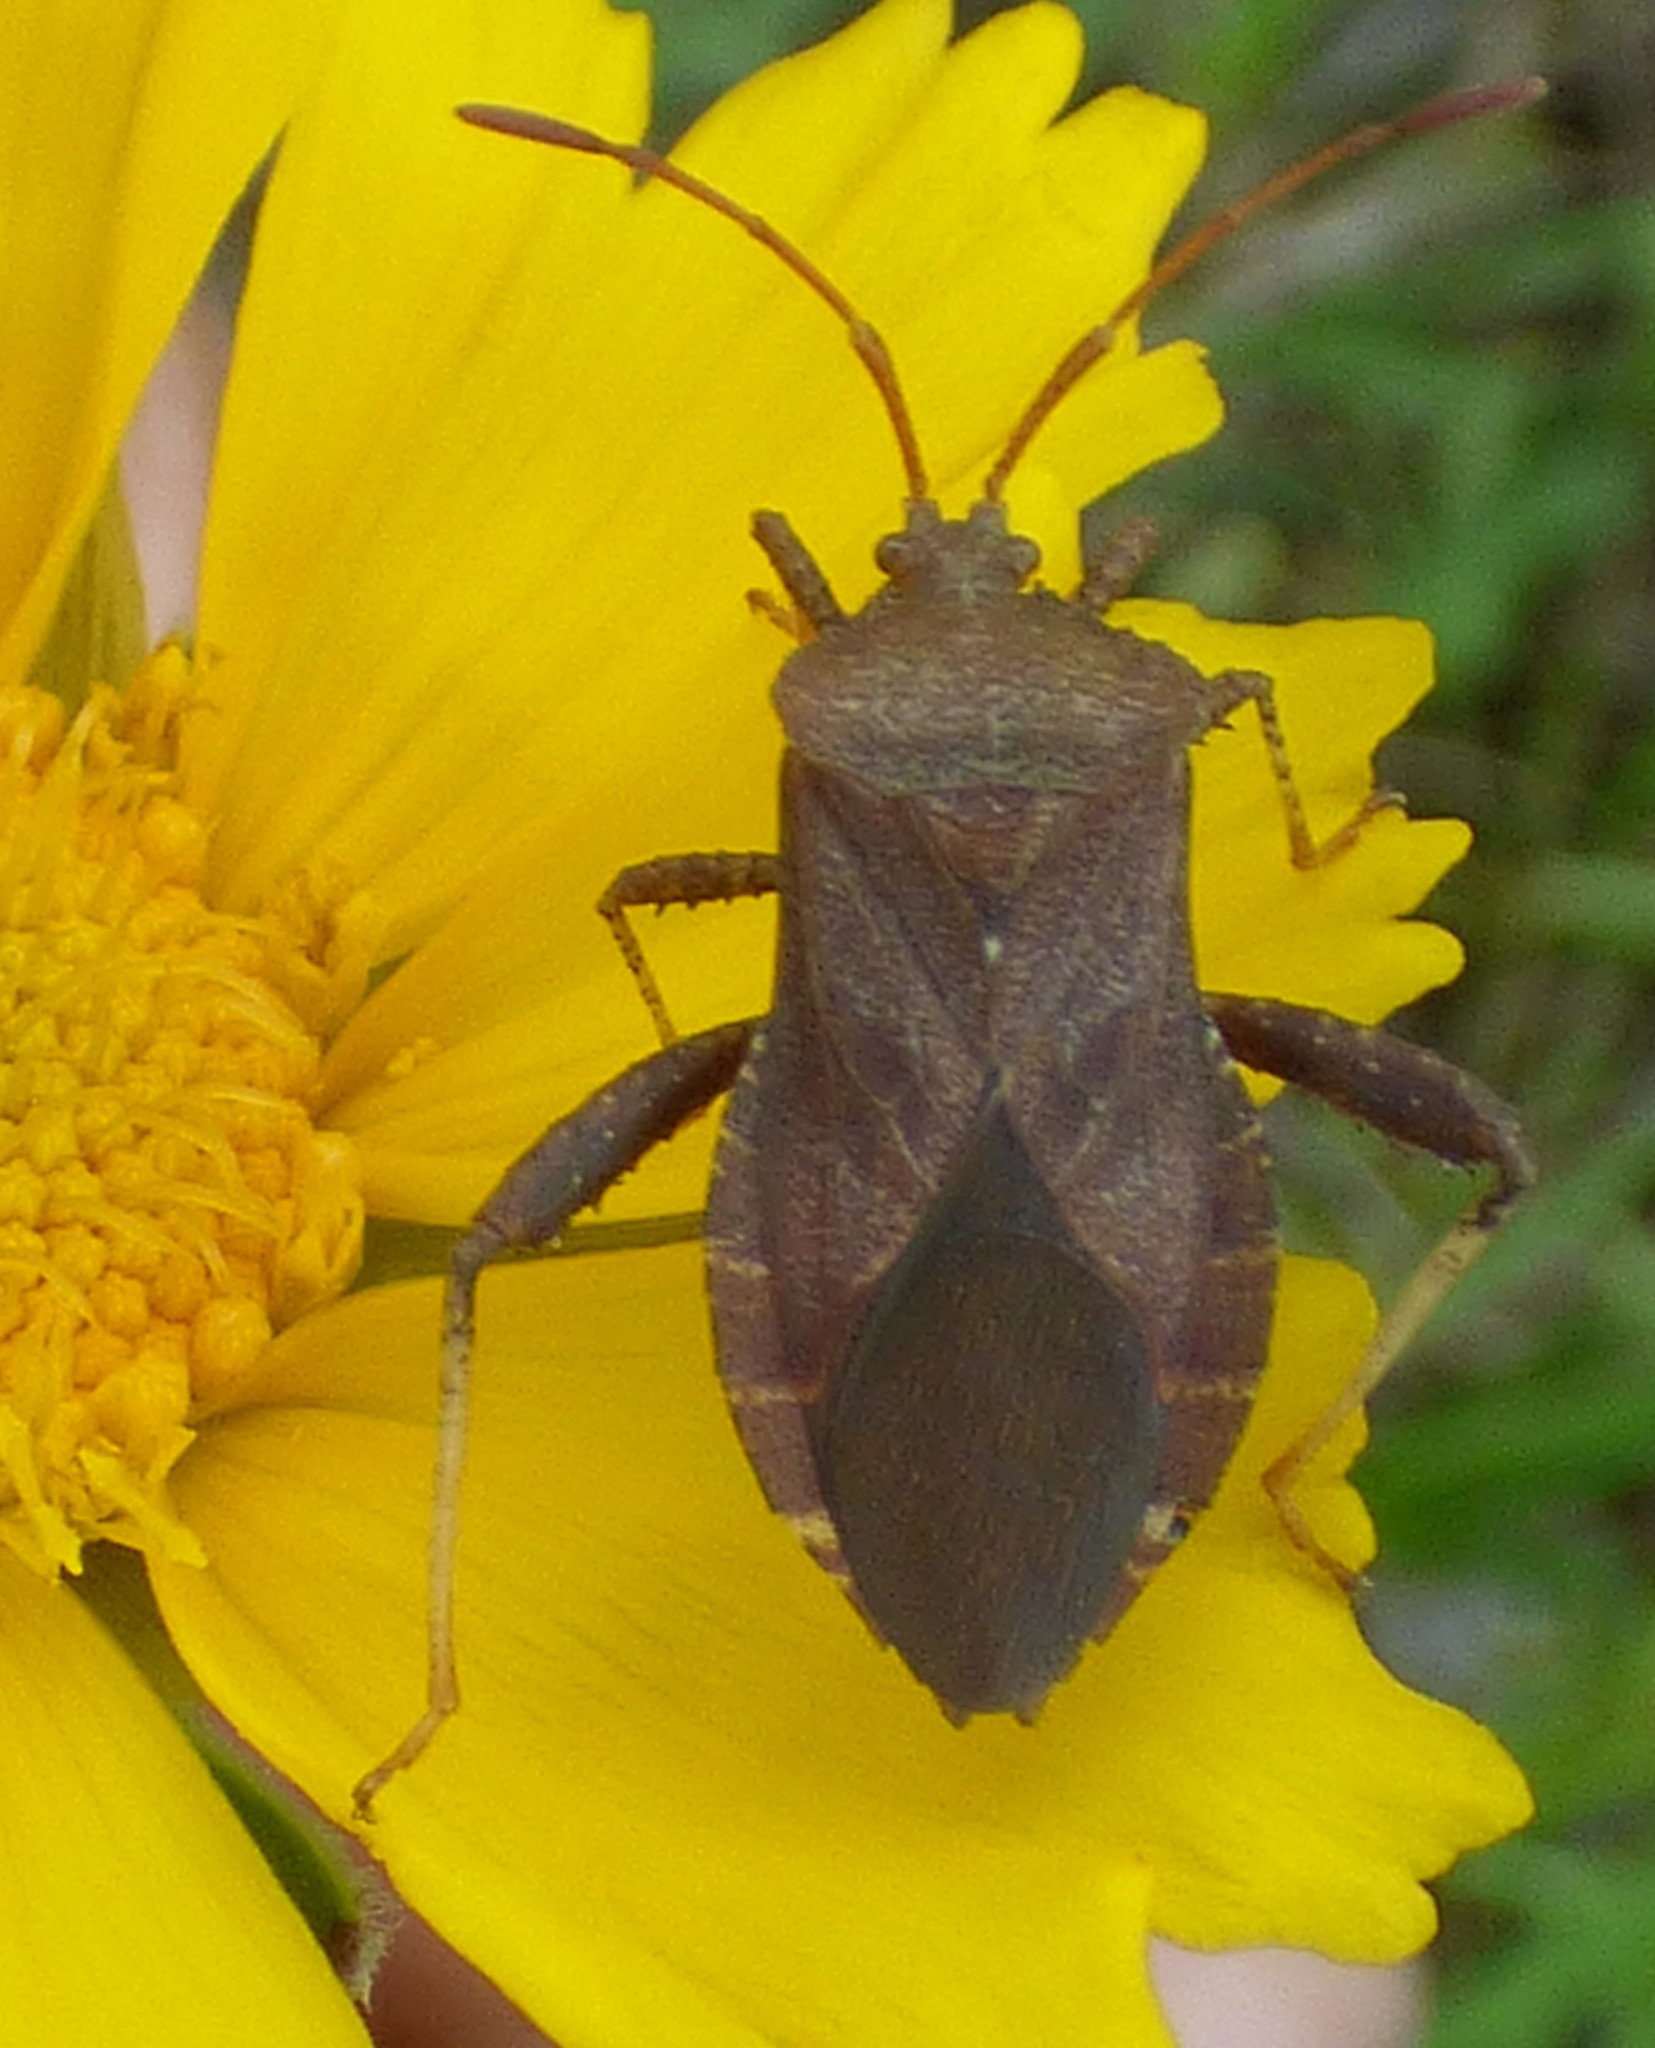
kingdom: Animalia
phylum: Arthropoda
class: Insecta
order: Hemiptera
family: Coreidae
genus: Euthochtha
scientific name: Euthochtha galeator
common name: Helmeted squash bug
